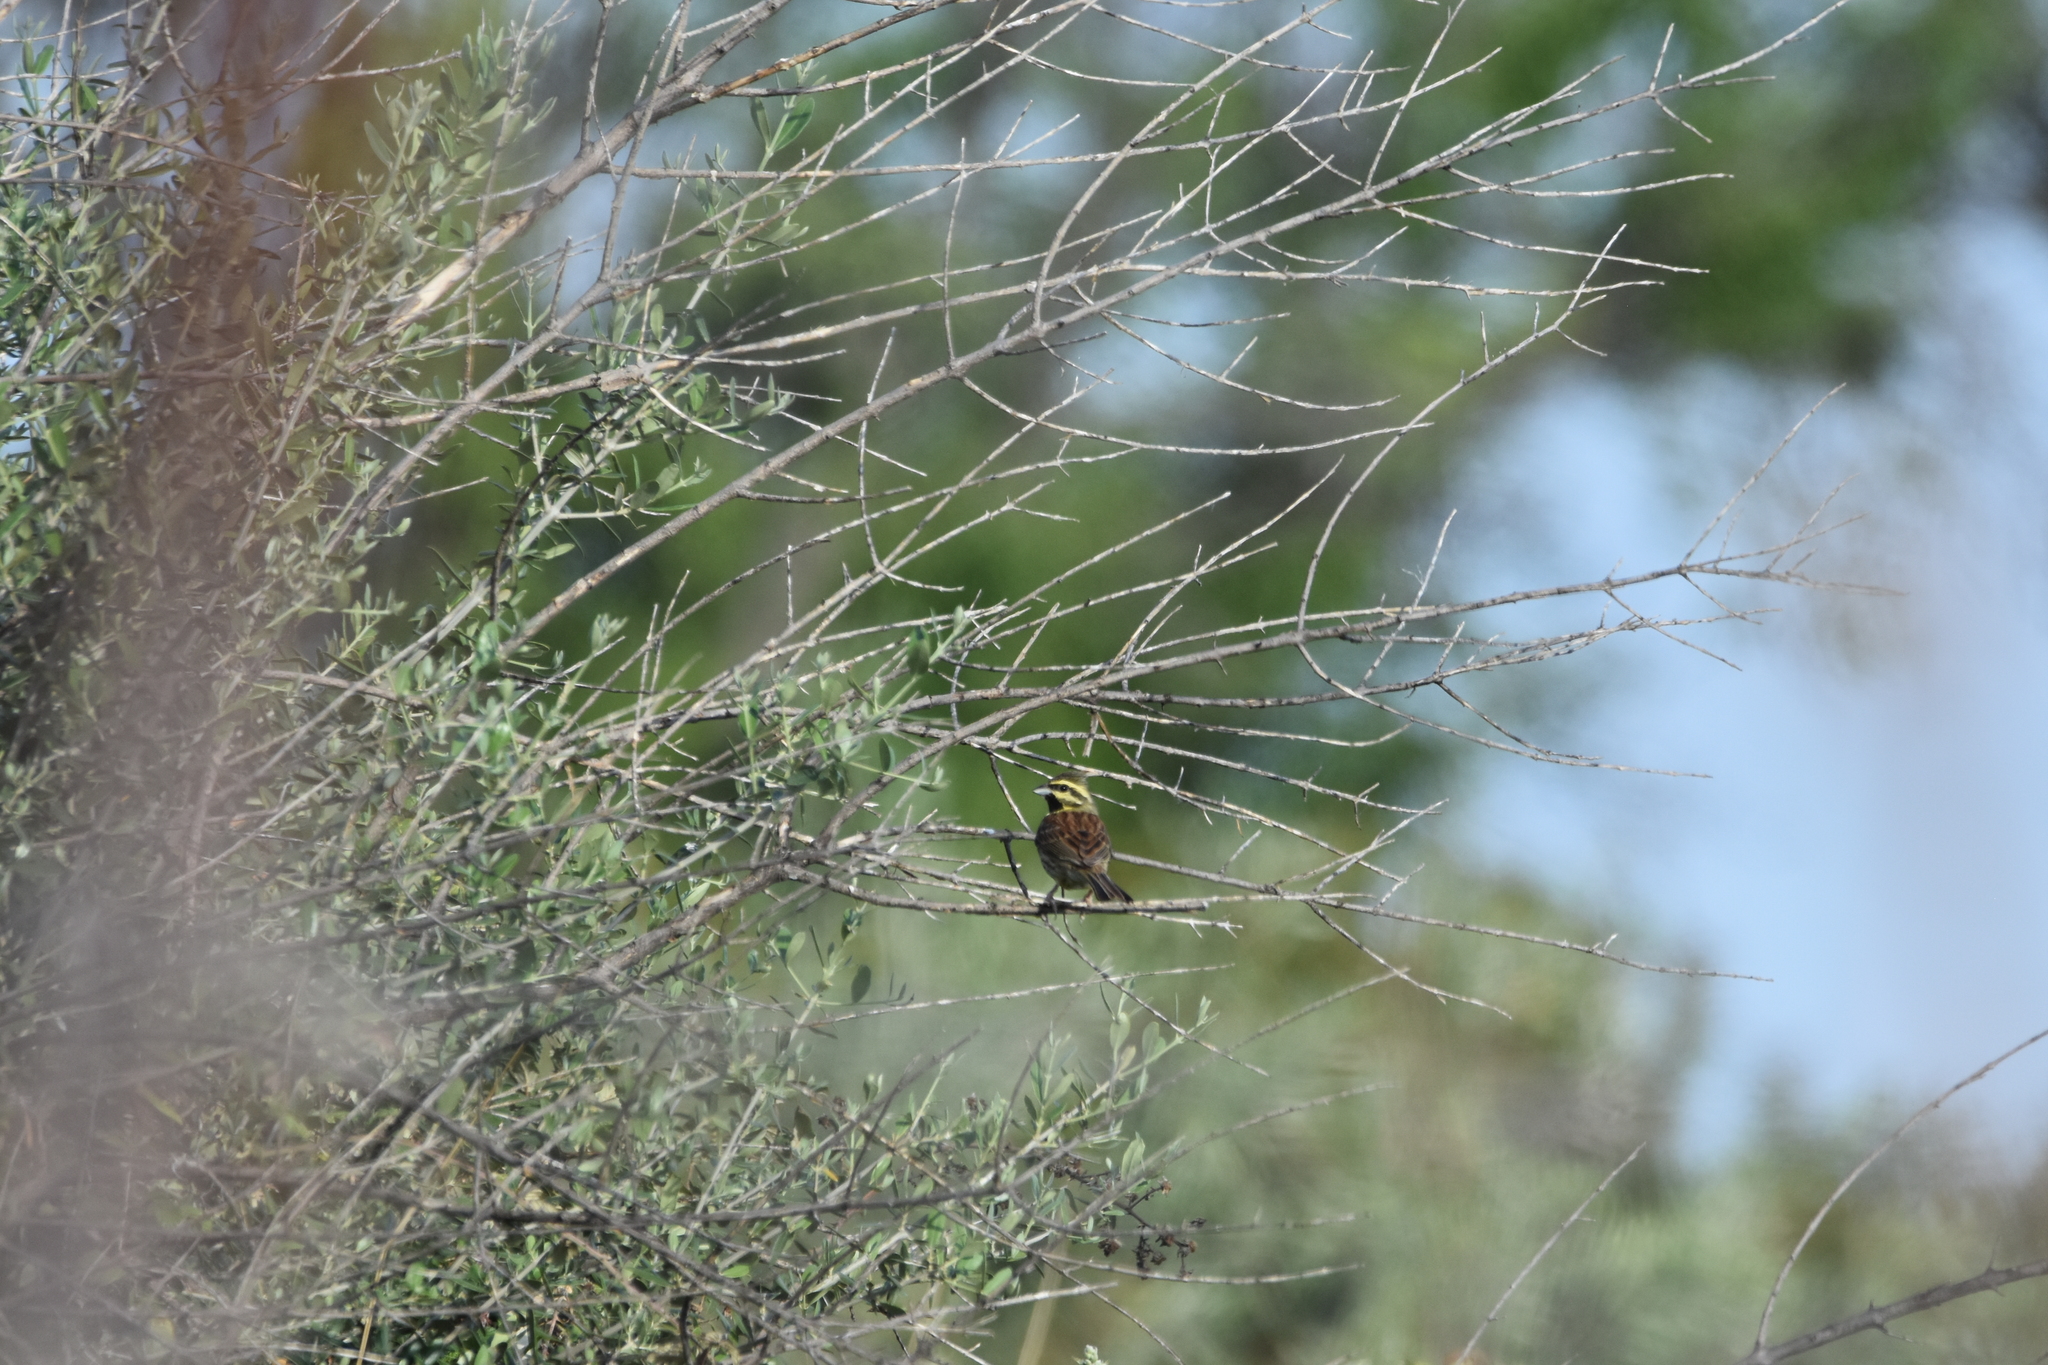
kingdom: Animalia
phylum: Chordata
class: Aves
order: Passeriformes
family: Emberizidae
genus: Emberiza
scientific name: Emberiza cirlus
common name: Cirl bunting
